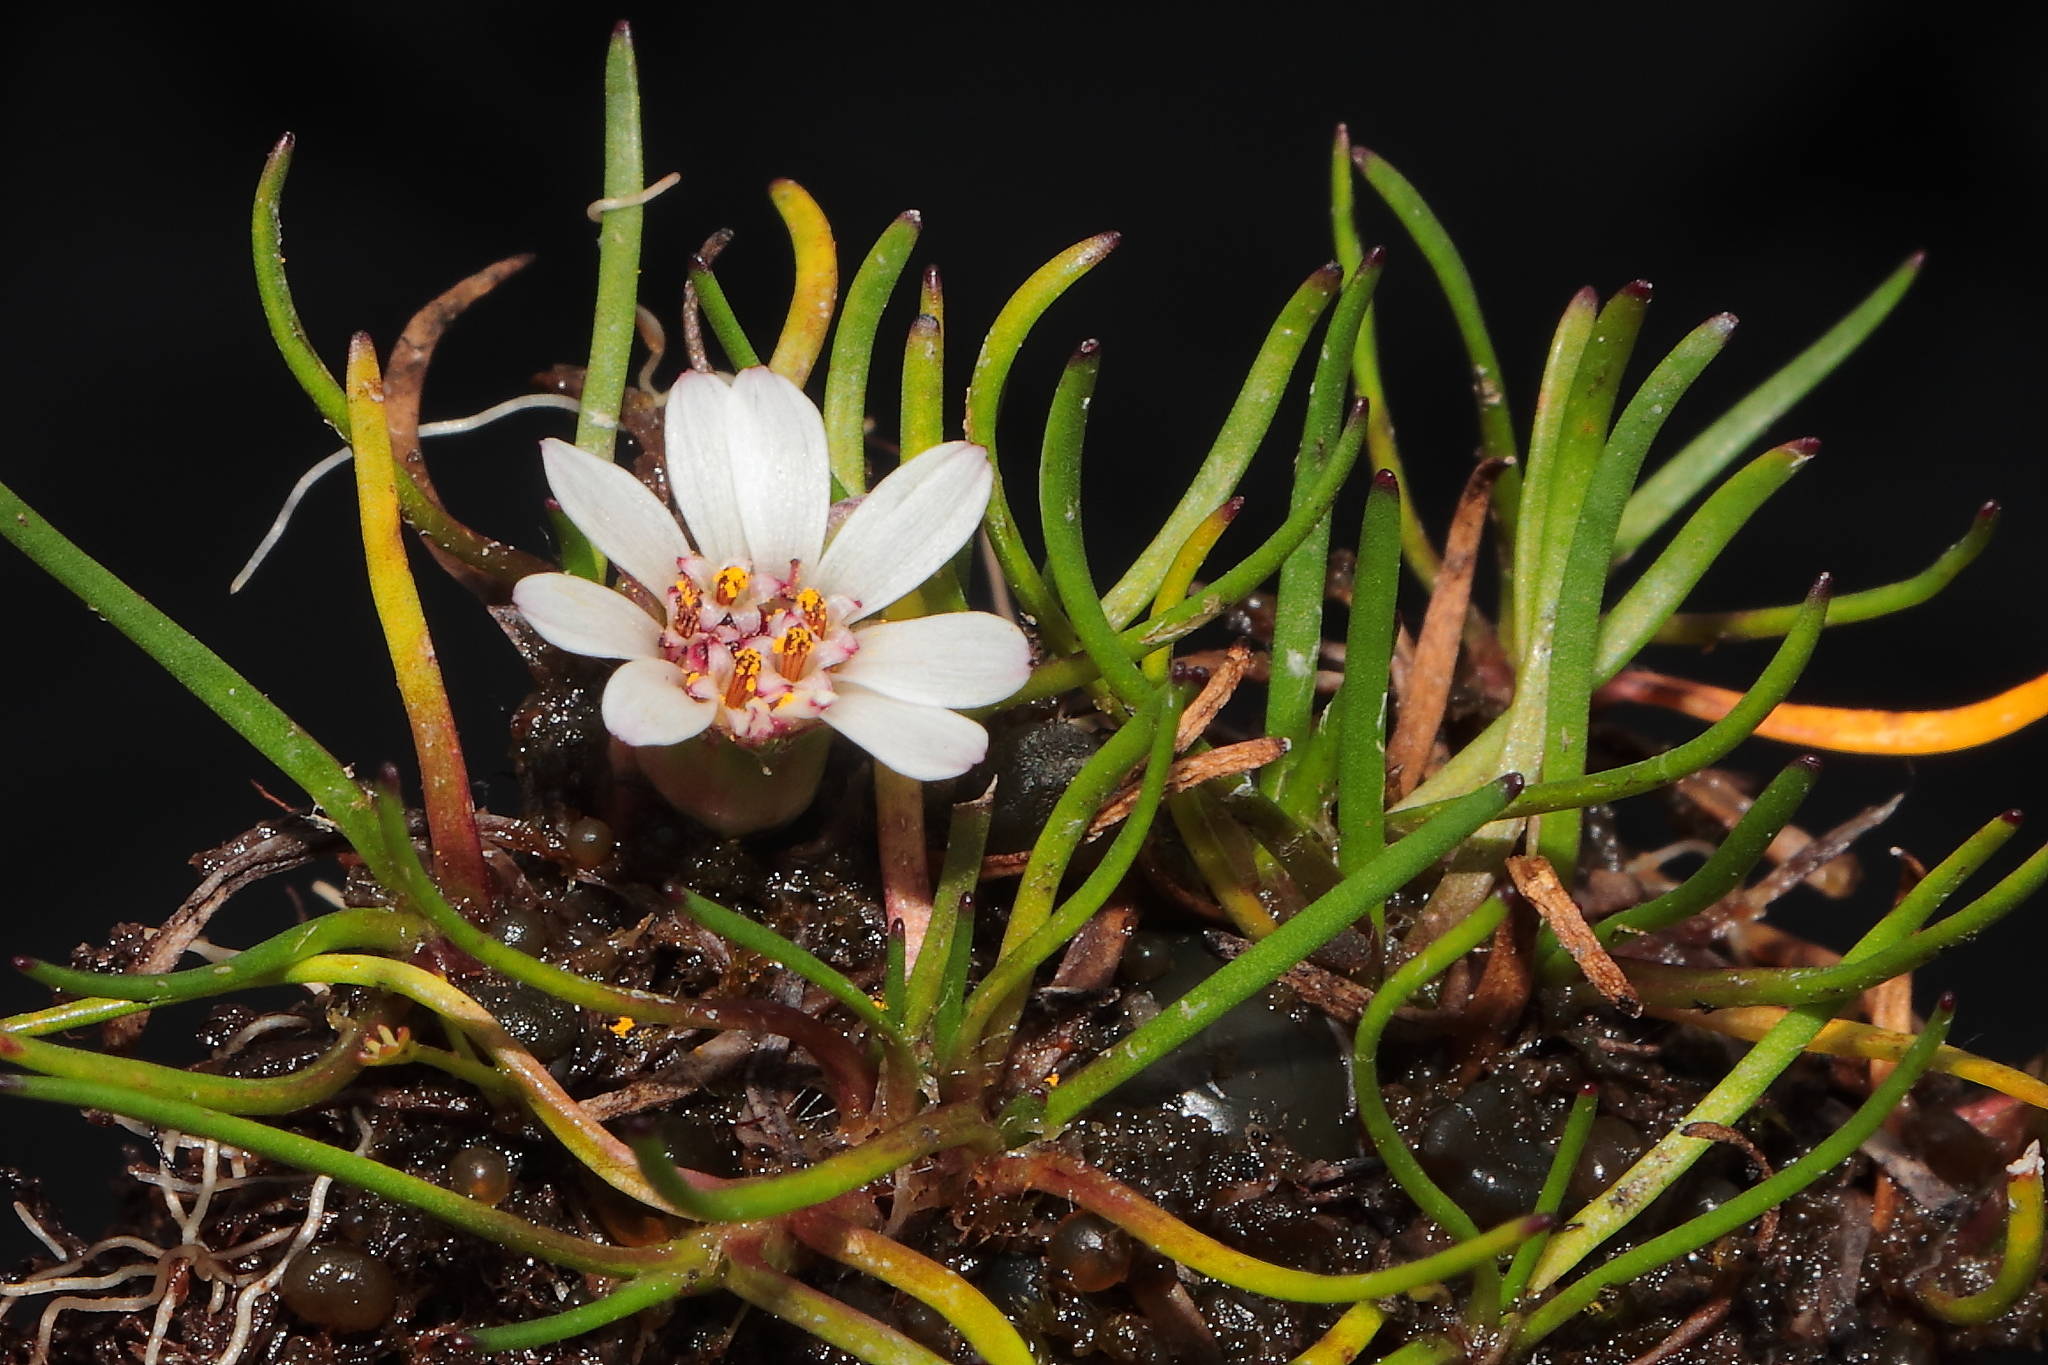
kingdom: Plantae
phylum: Tracheophyta
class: Magnoliopsida
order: Asterales
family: Asteraceae
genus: Rockhausenia
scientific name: Rockhausenia pygmaea
